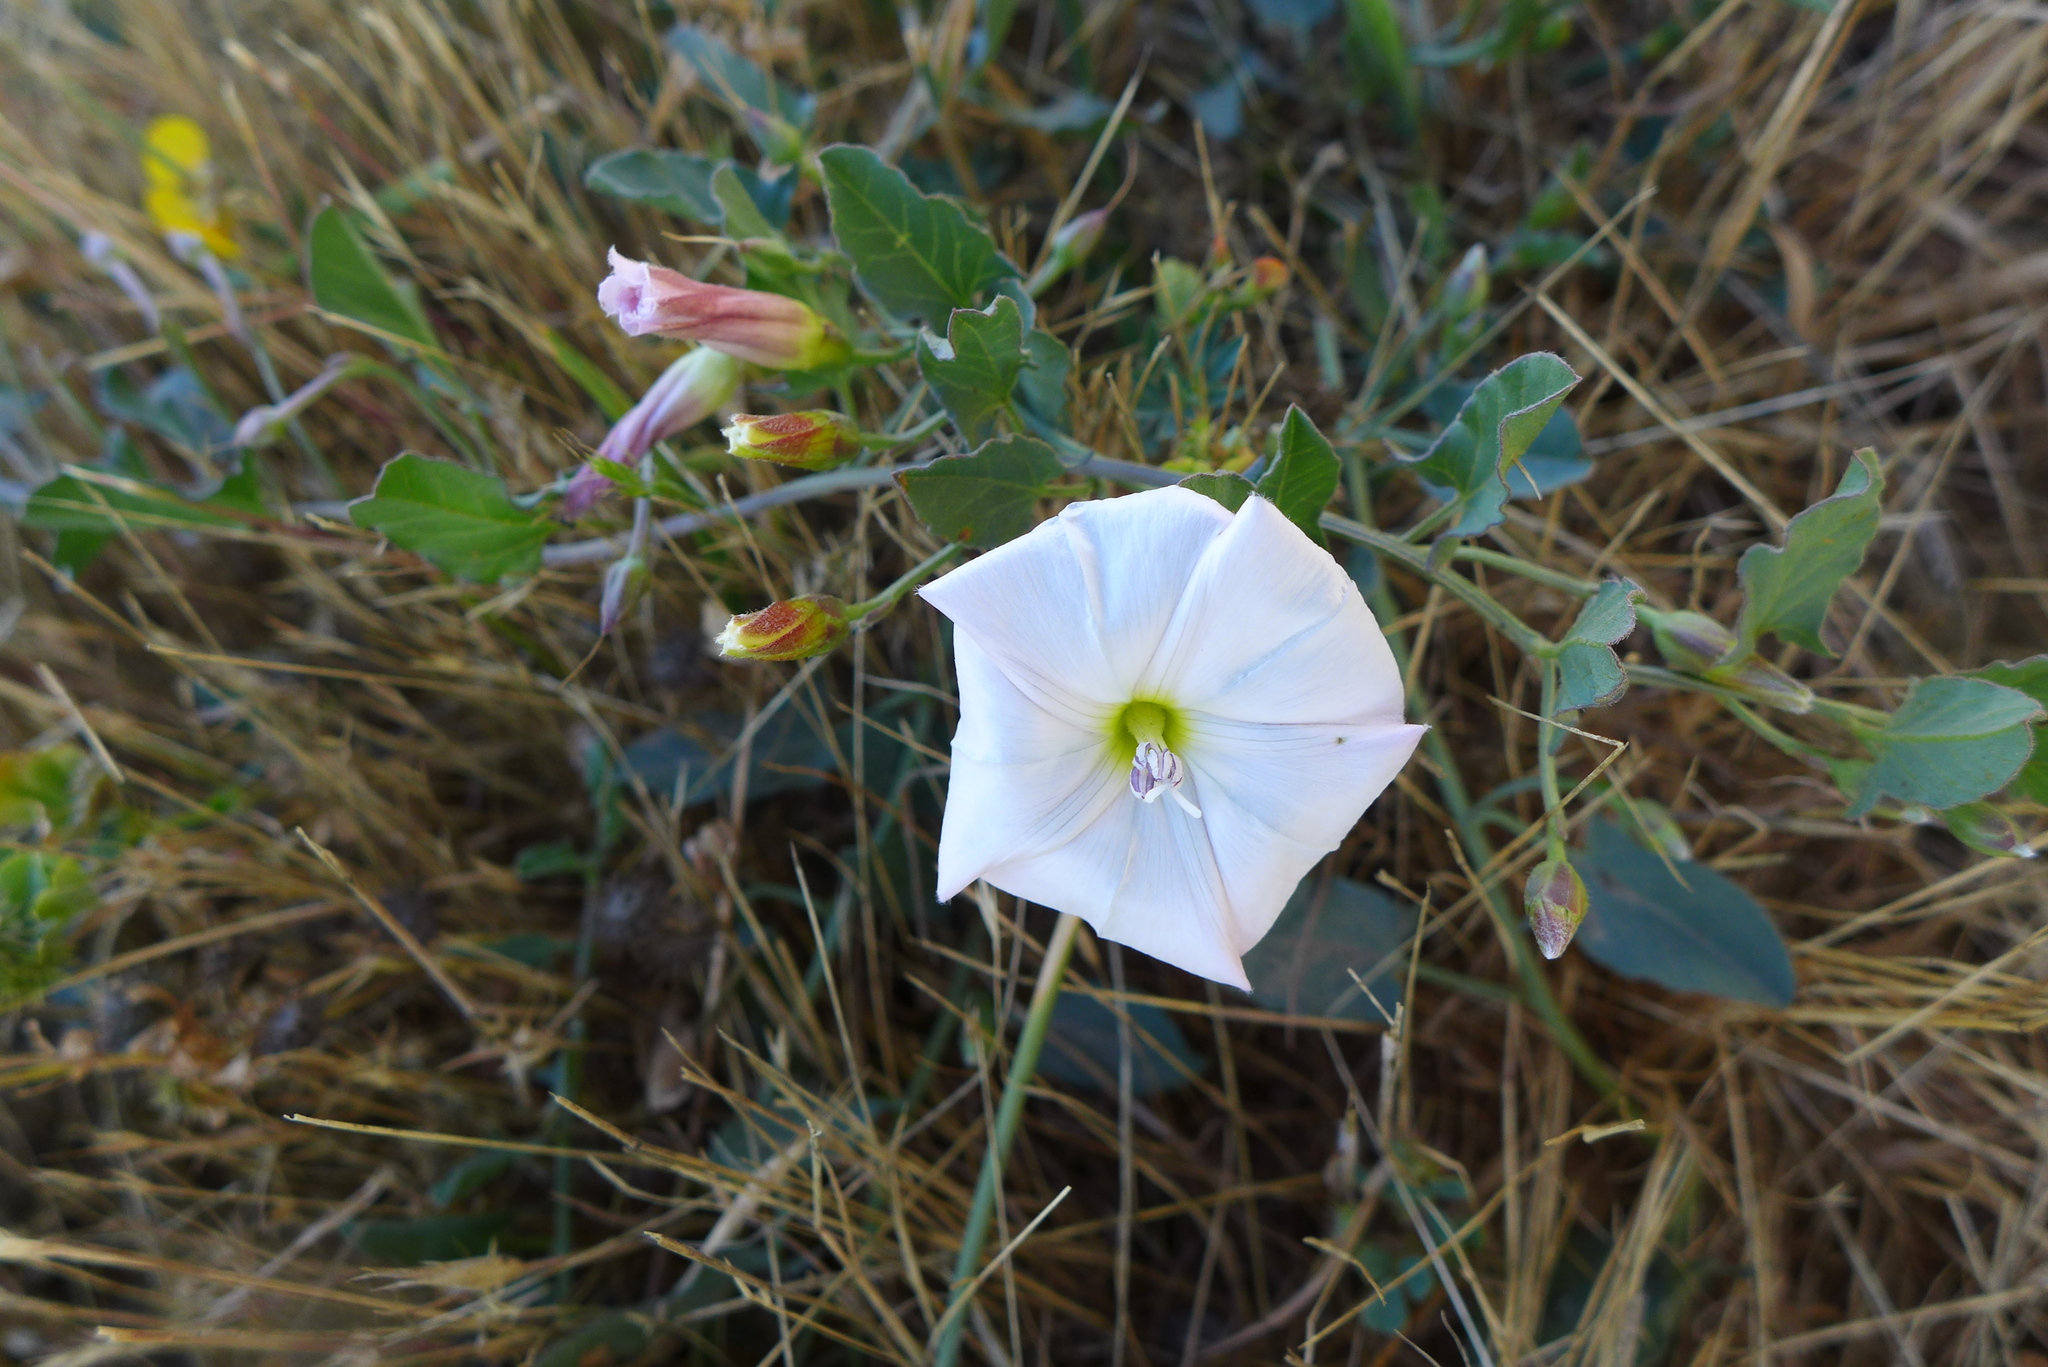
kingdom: Plantae
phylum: Tracheophyta
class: Magnoliopsida
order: Solanales
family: Convolvulaceae
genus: Convolvulus
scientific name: Convolvulus arvensis
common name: Field bindweed
